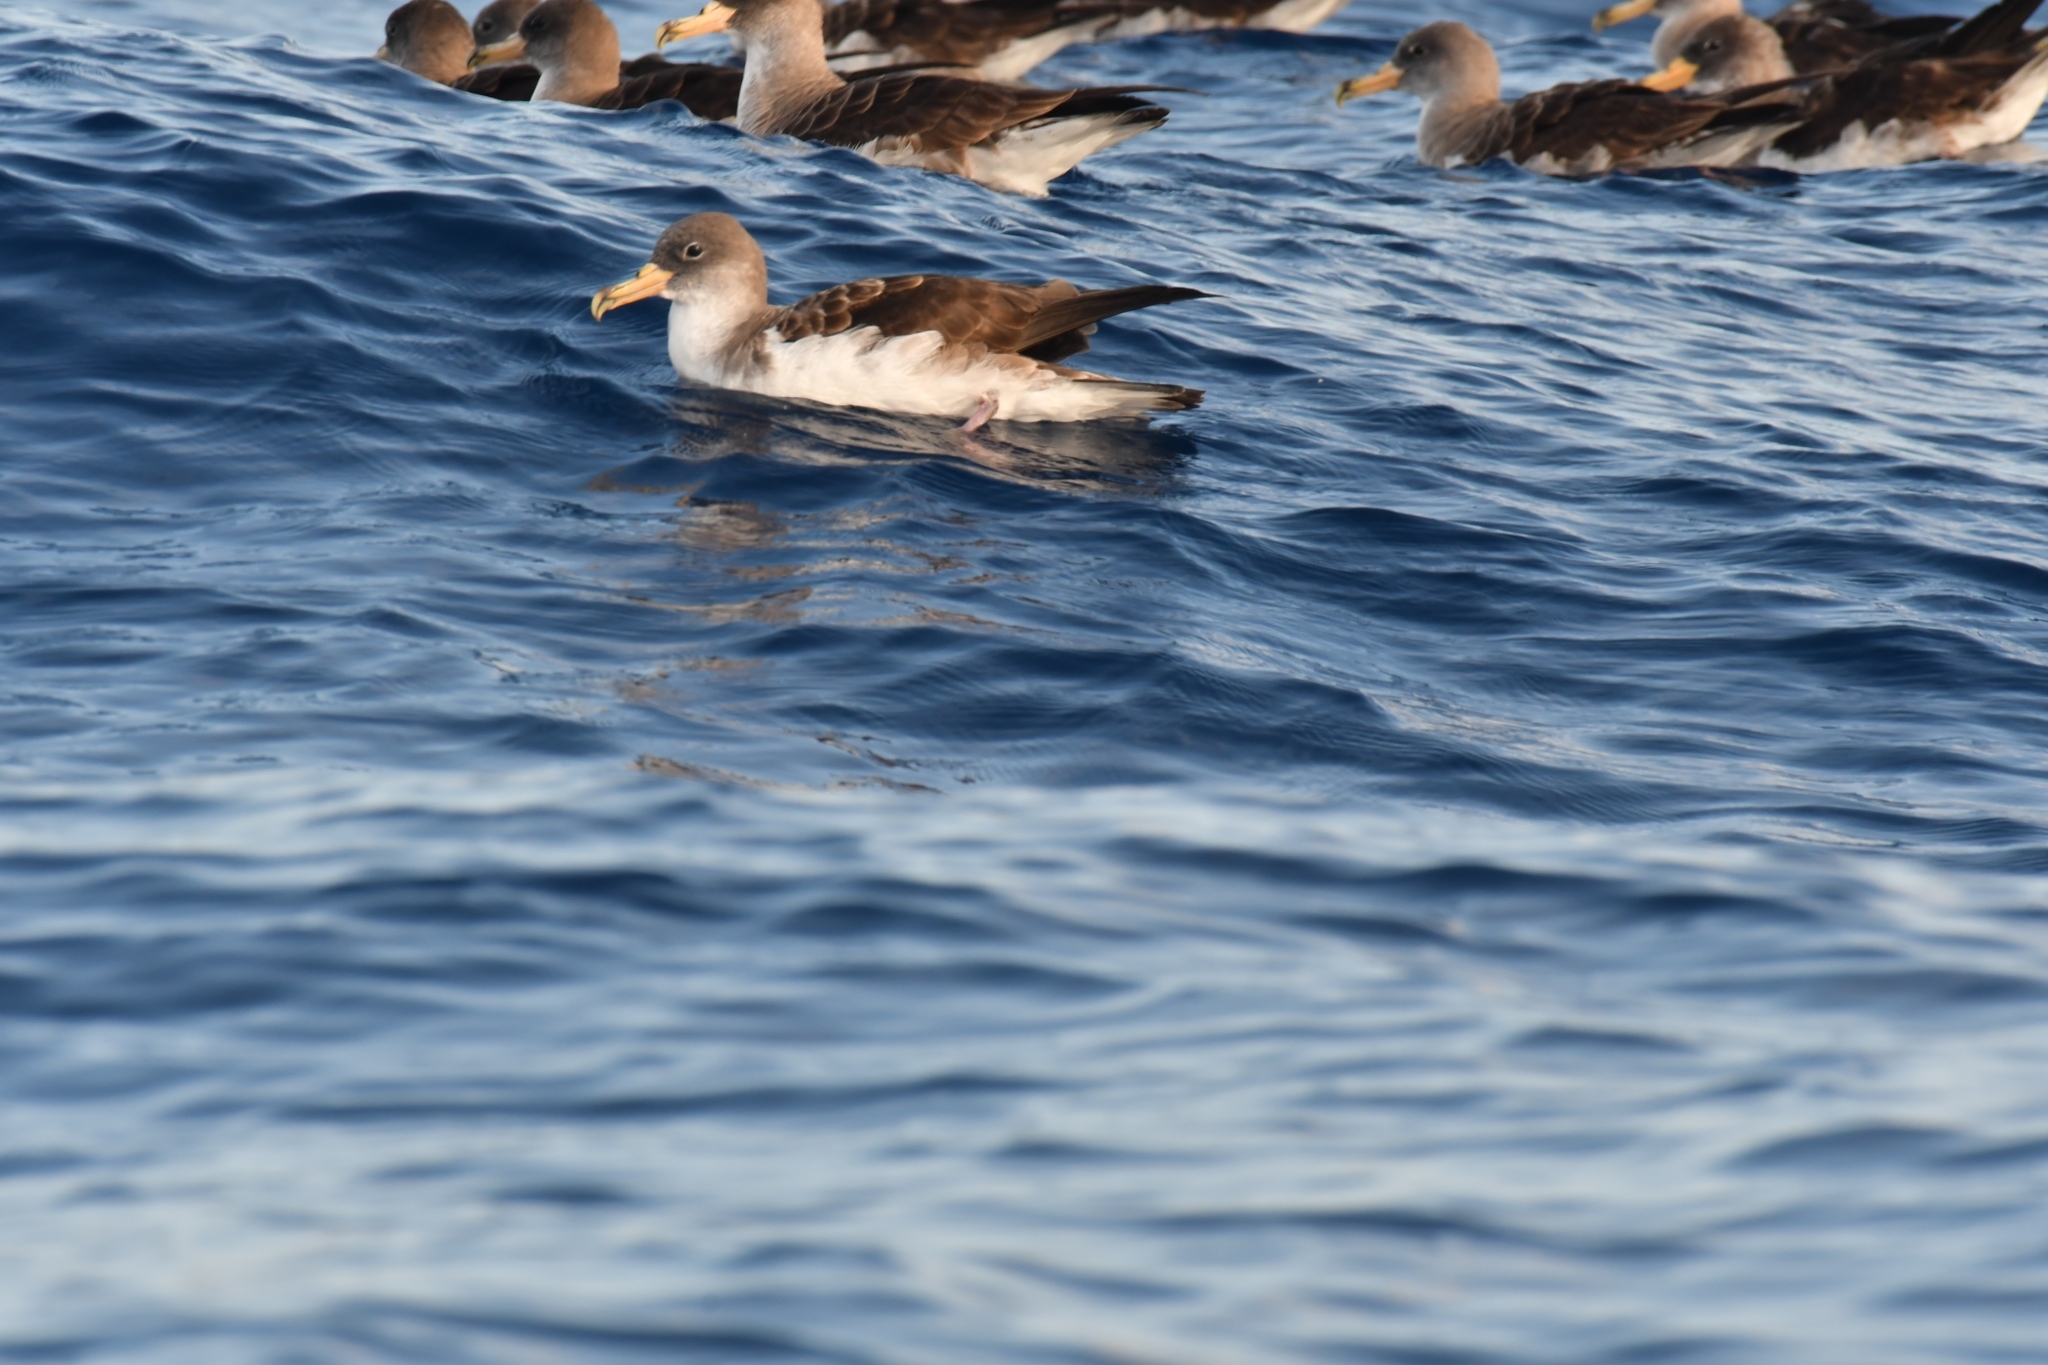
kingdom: Animalia
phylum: Chordata
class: Aves
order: Procellariiformes
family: Procellariidae
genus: Calonectris
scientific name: Calonectris diomedea
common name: Cory's shearwater
